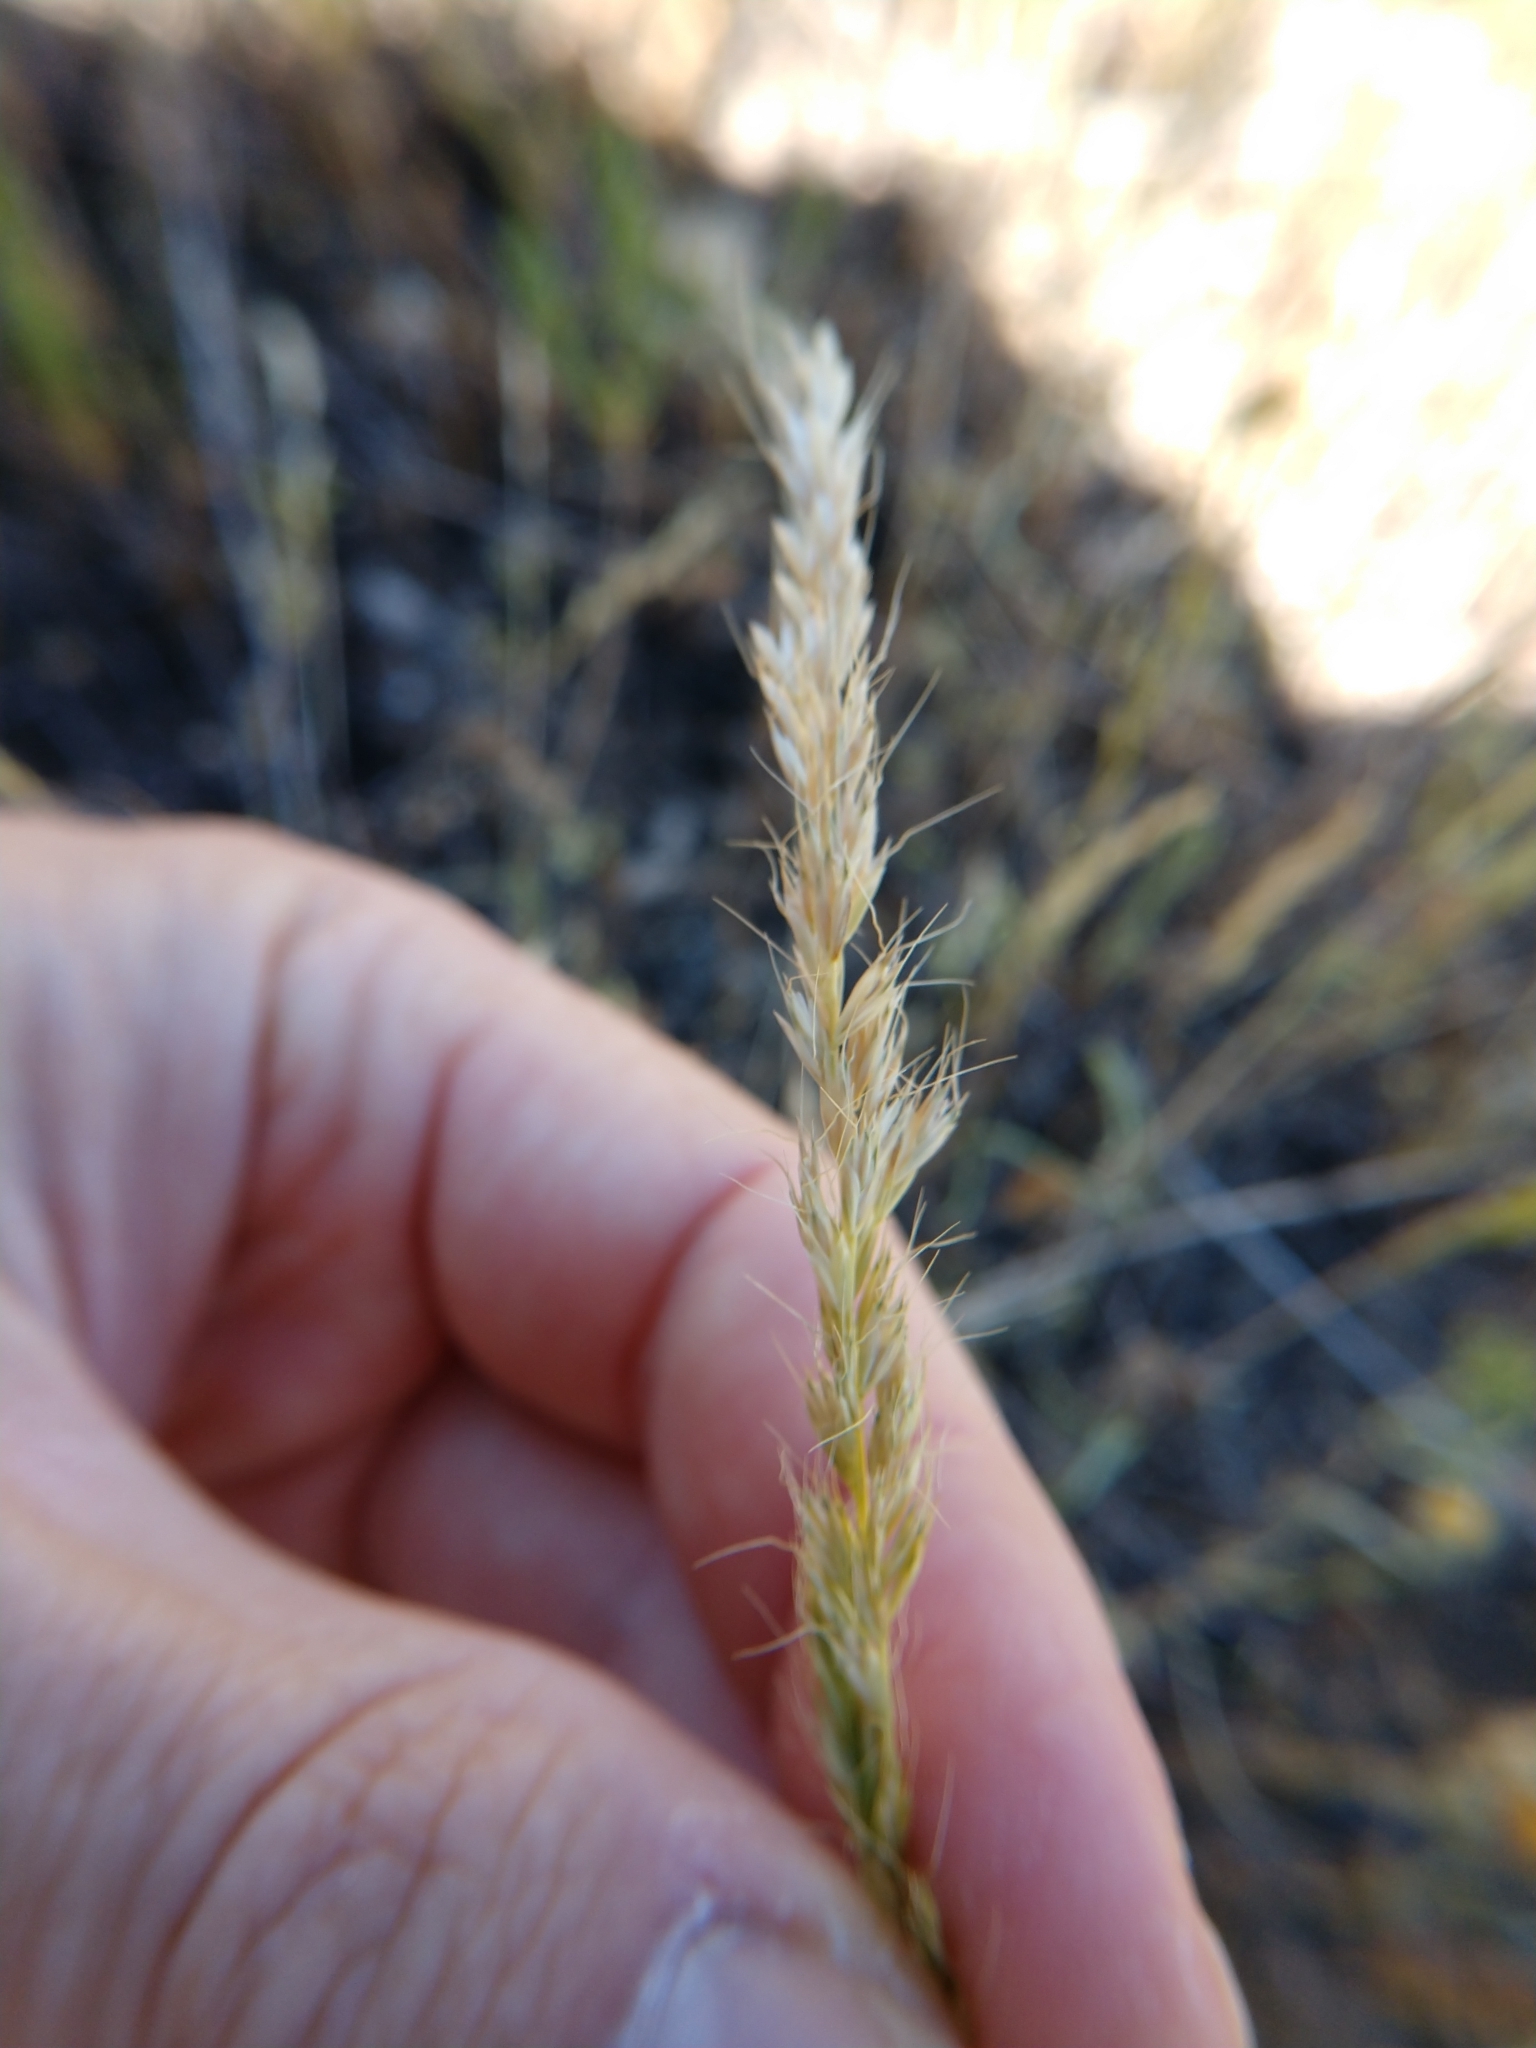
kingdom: Plantae
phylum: Tracheophyta
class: Liliopsida
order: Poales
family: Poaceae
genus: Trisetum
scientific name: Trisetum interruptum
